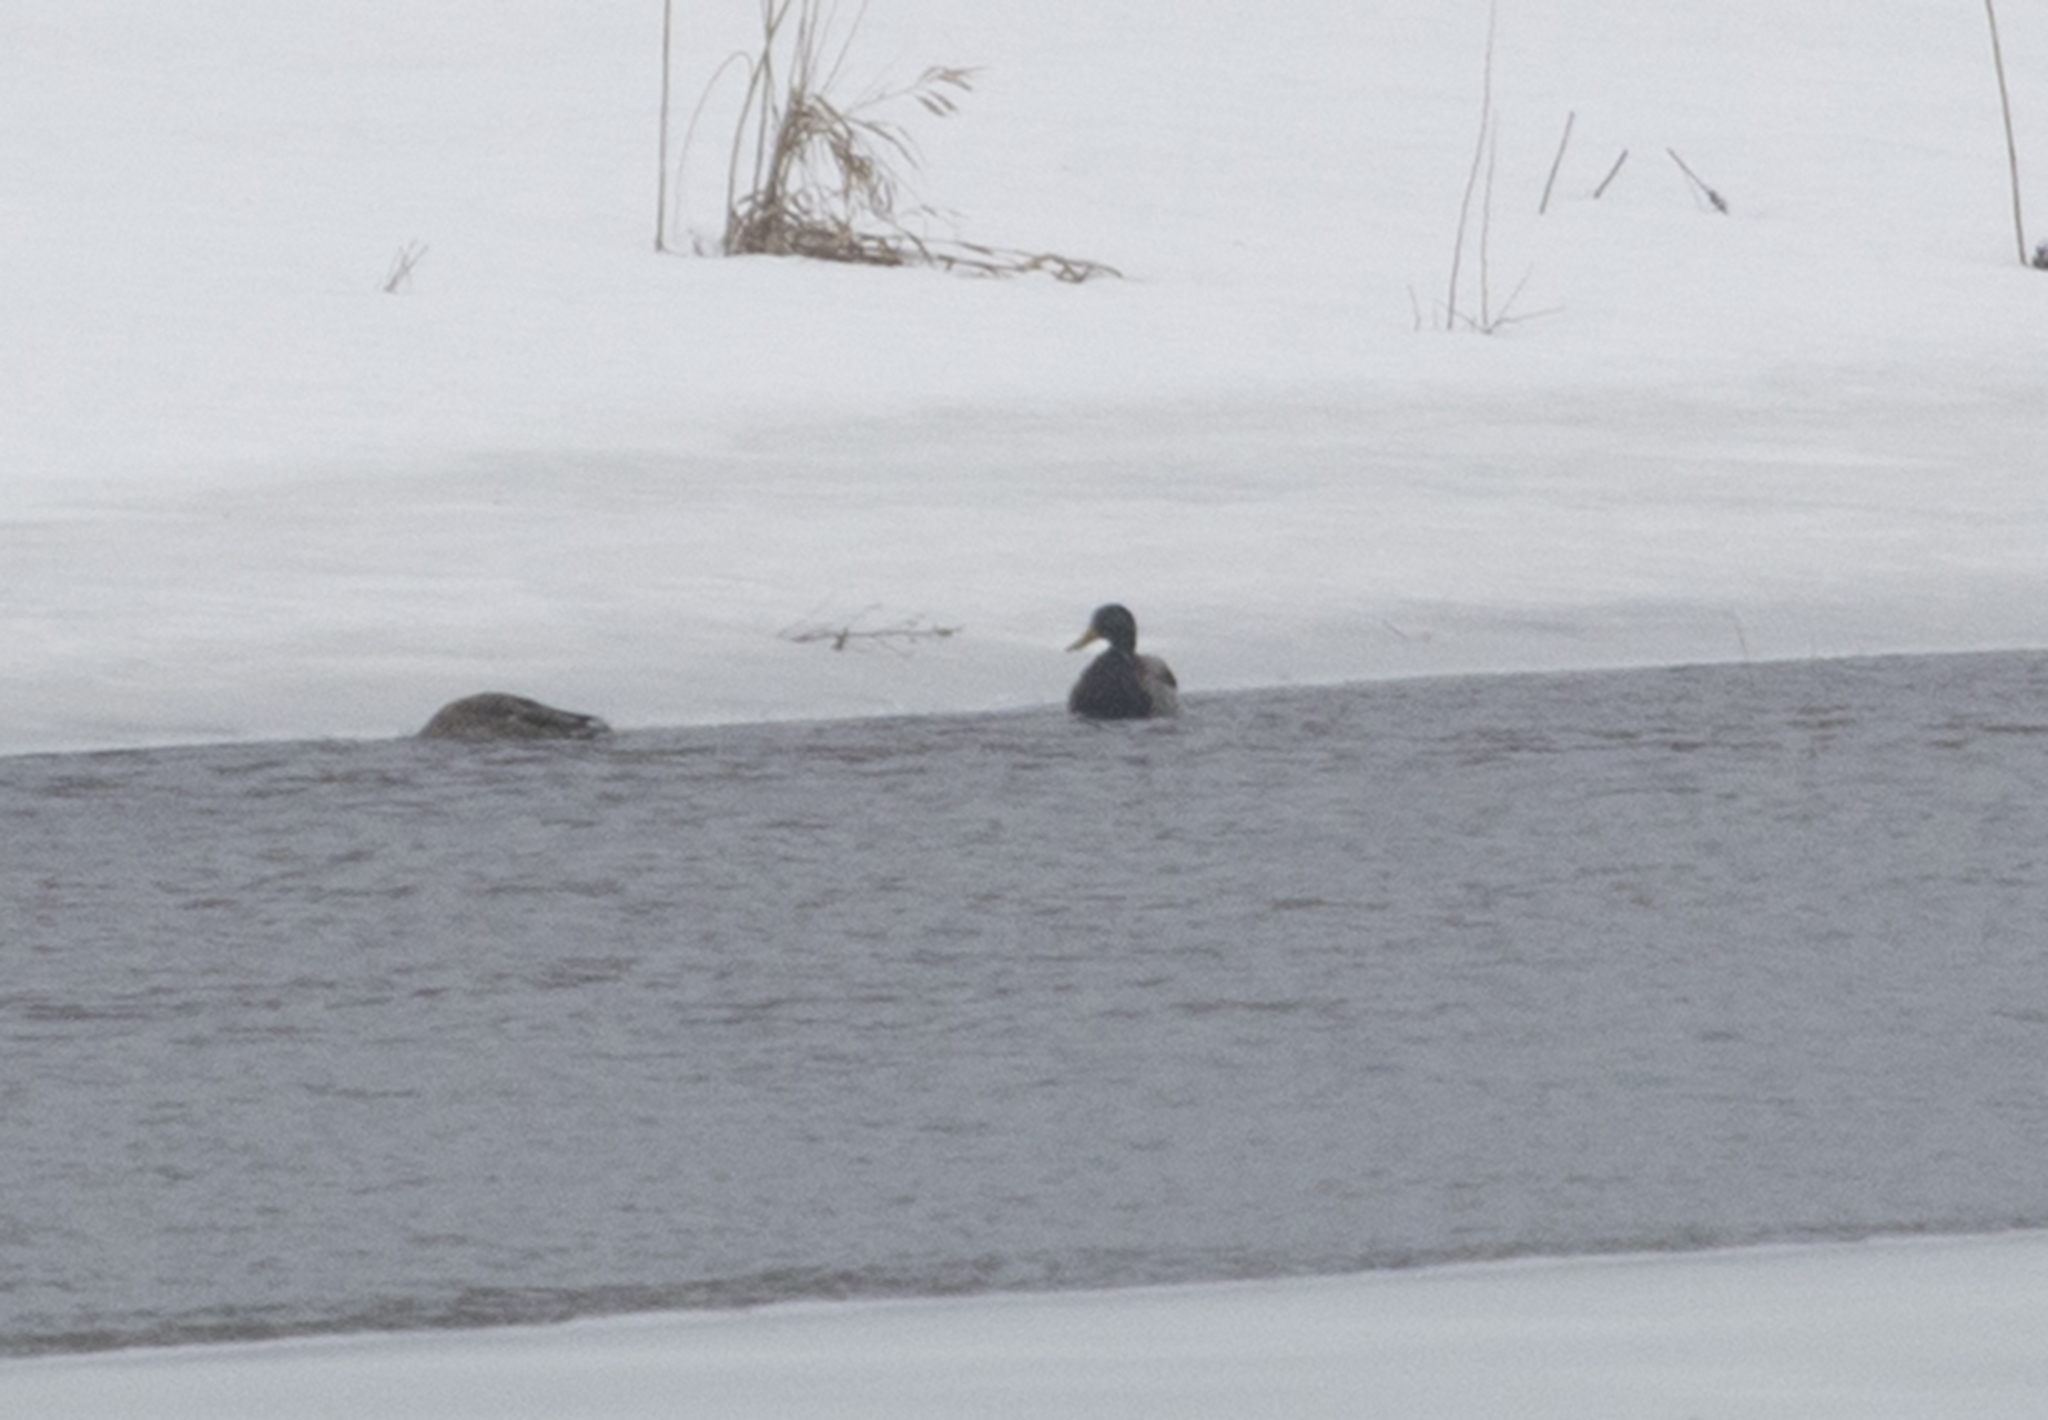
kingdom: Animalia
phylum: Chordata
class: Aves
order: Anseriformes
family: Anatidae
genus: Anas
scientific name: Anas platyrhynchos
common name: Mallard
